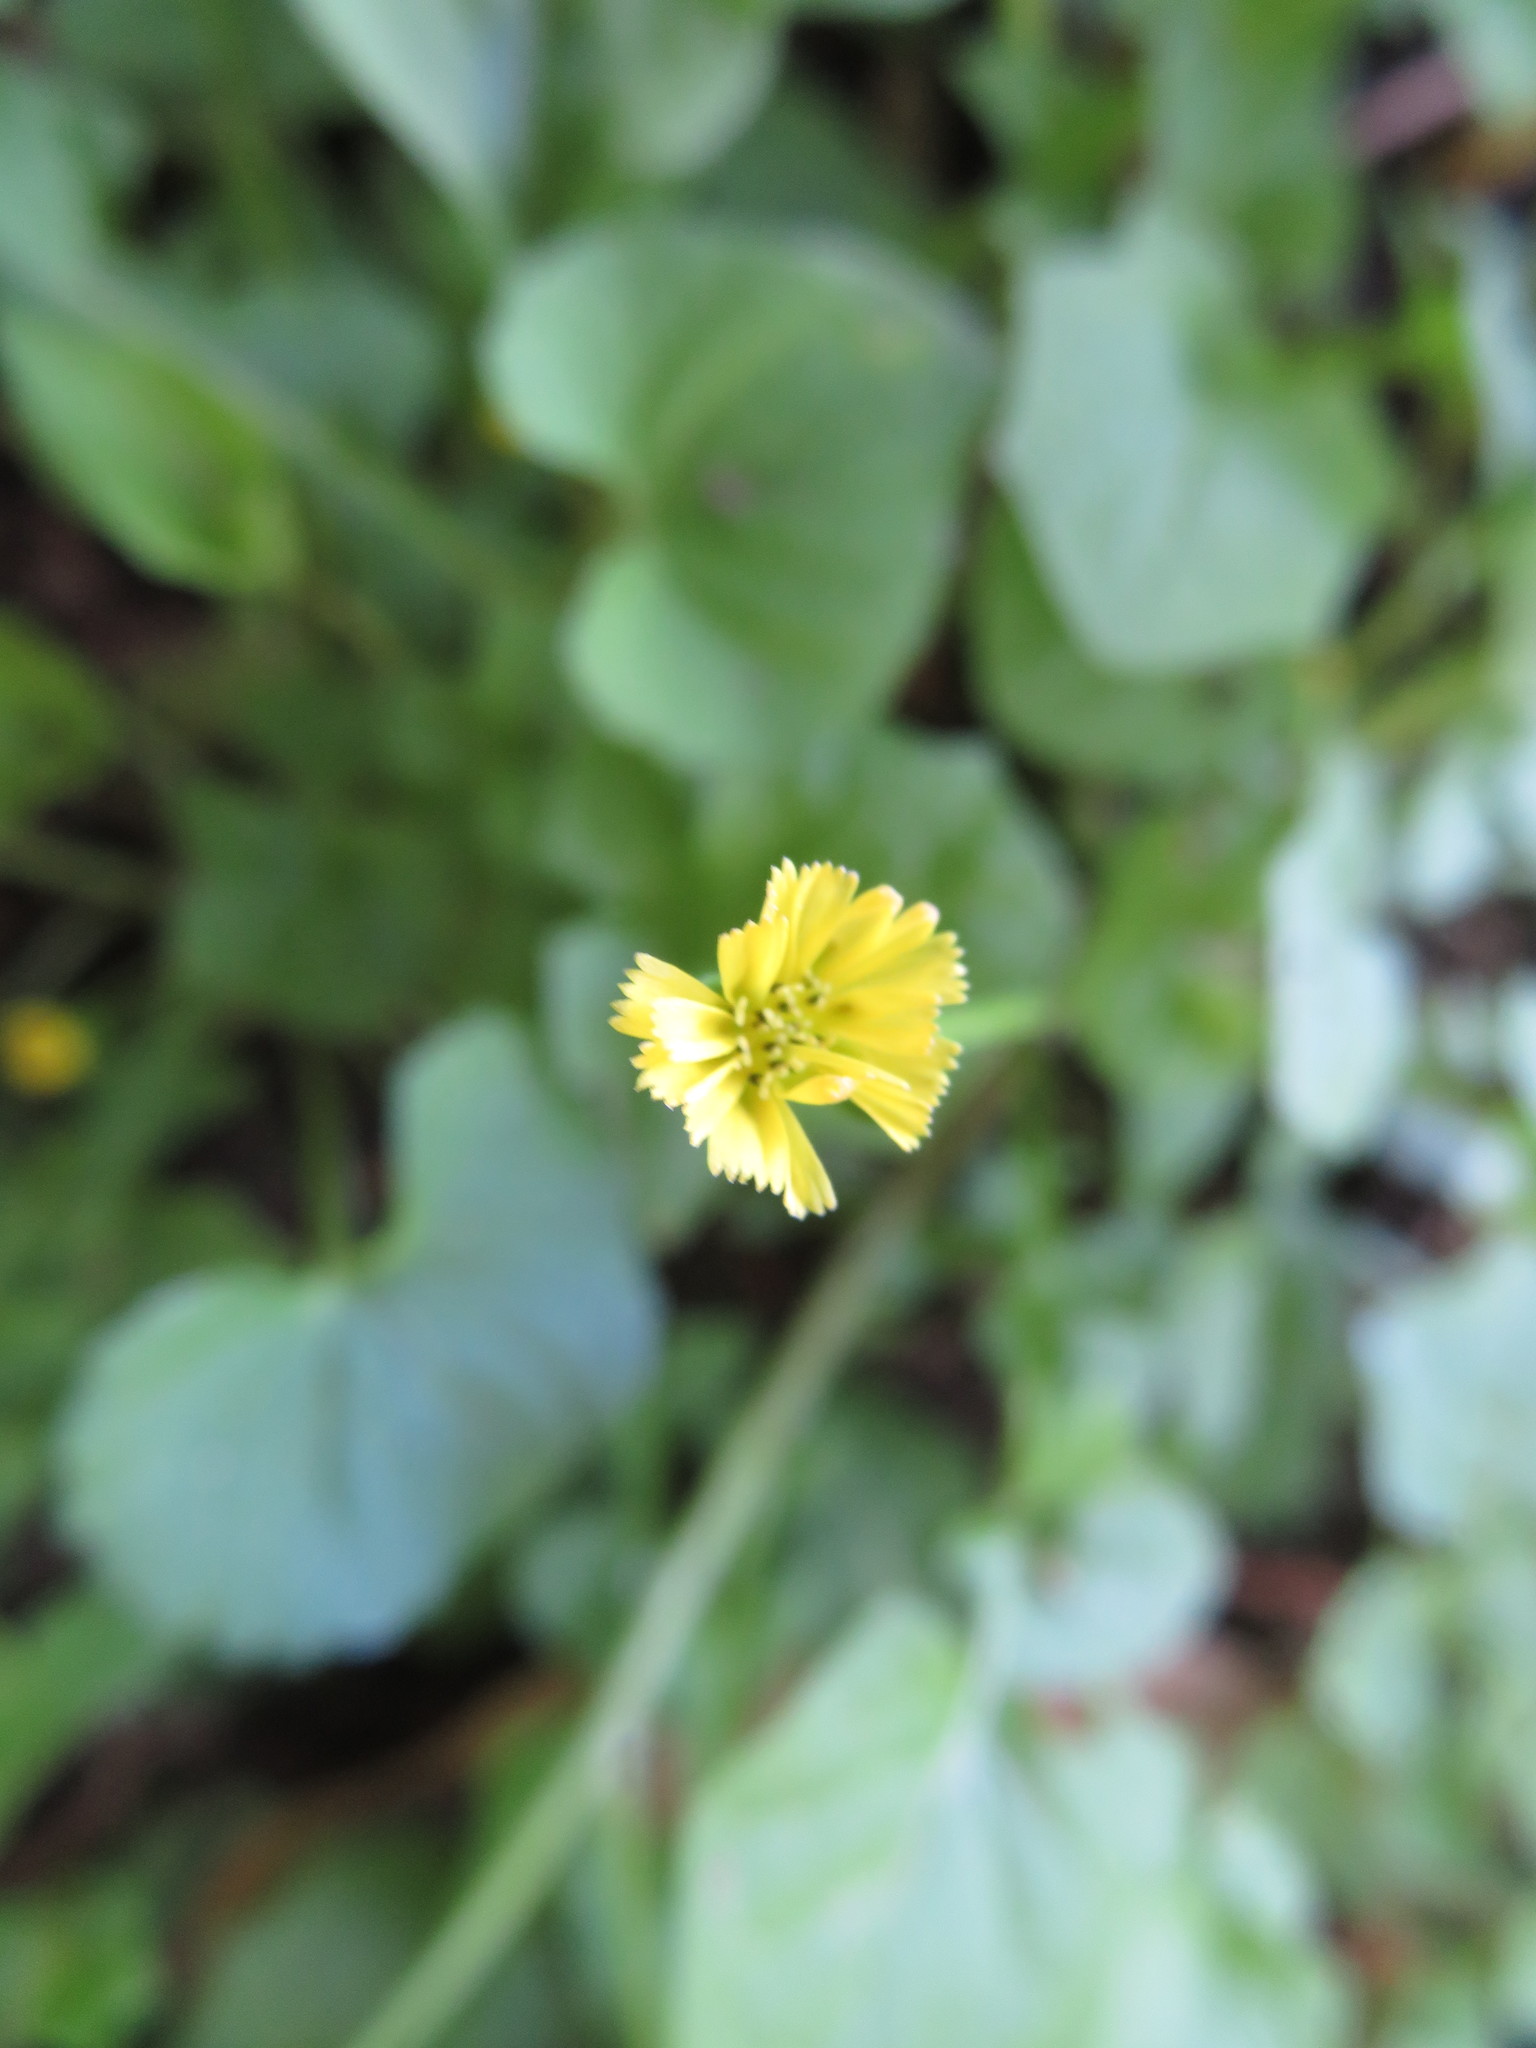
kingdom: Plantae
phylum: Tracheophyta
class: Magnoliopsida
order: Asterales
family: Asteraceae
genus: Lapsanastrum
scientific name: Lapsanastrum humile
